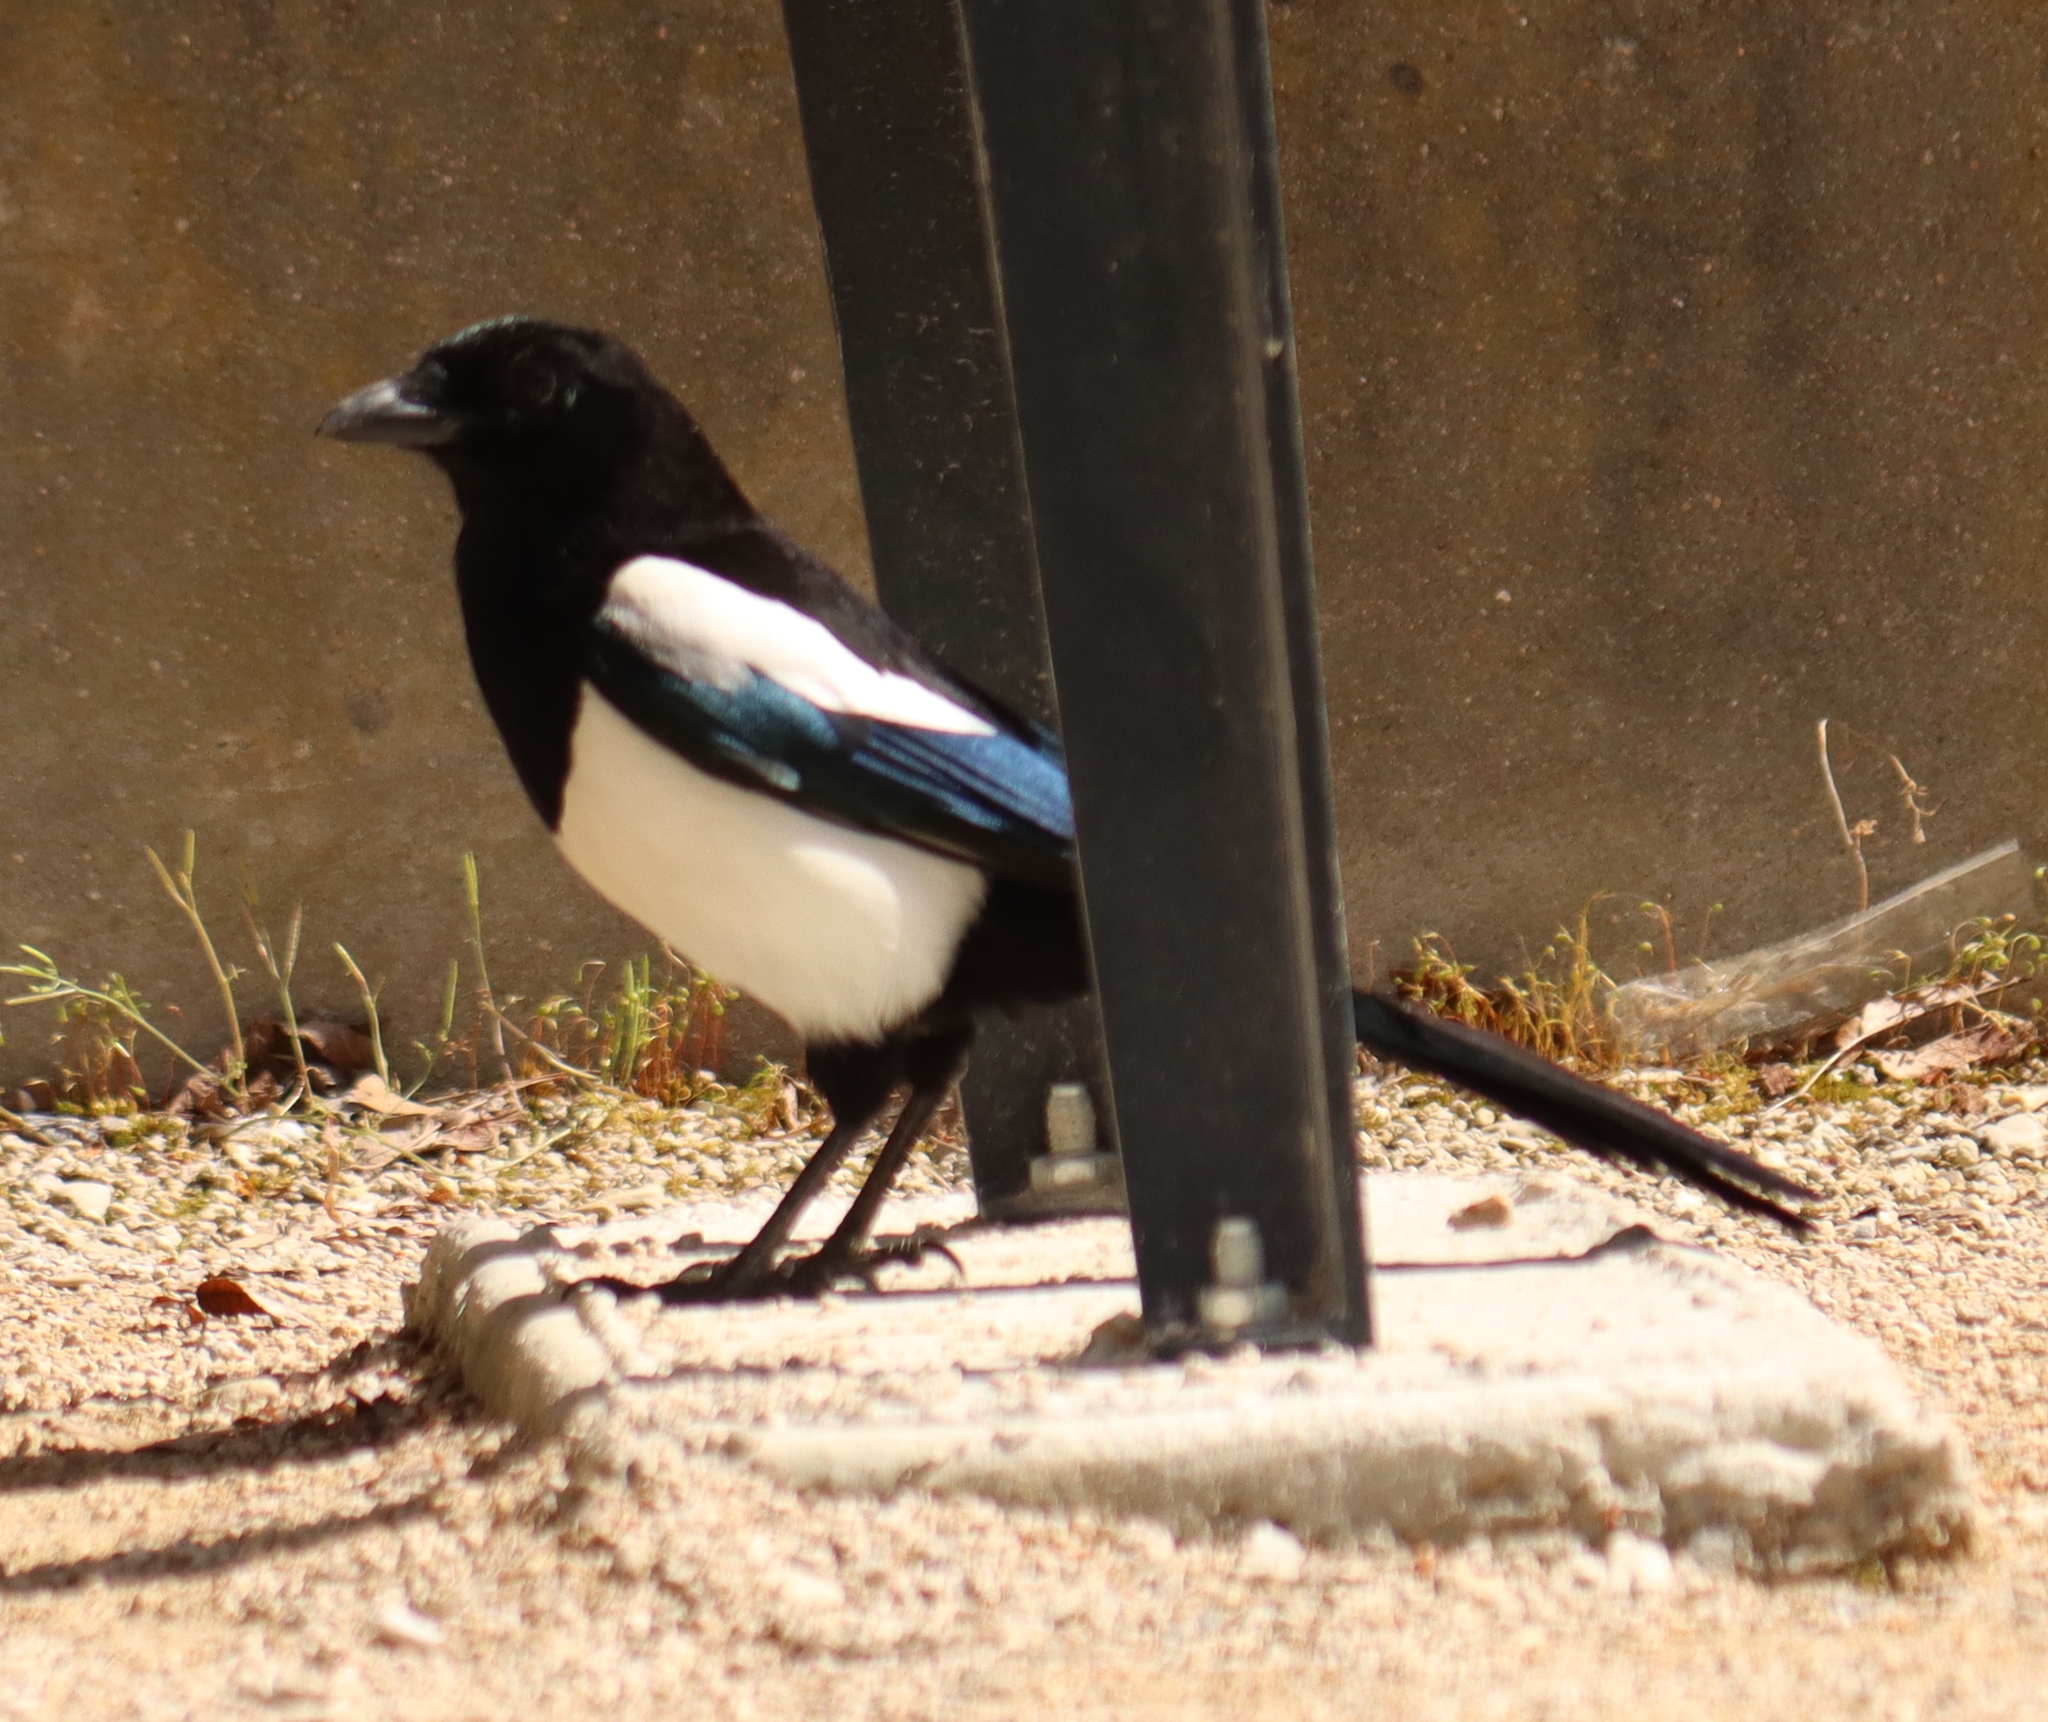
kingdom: Animalia
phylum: Chordata
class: Aves
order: Passeriformes
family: Corvidae
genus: Pica
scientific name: Pica pica
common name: Eurasian magpie
